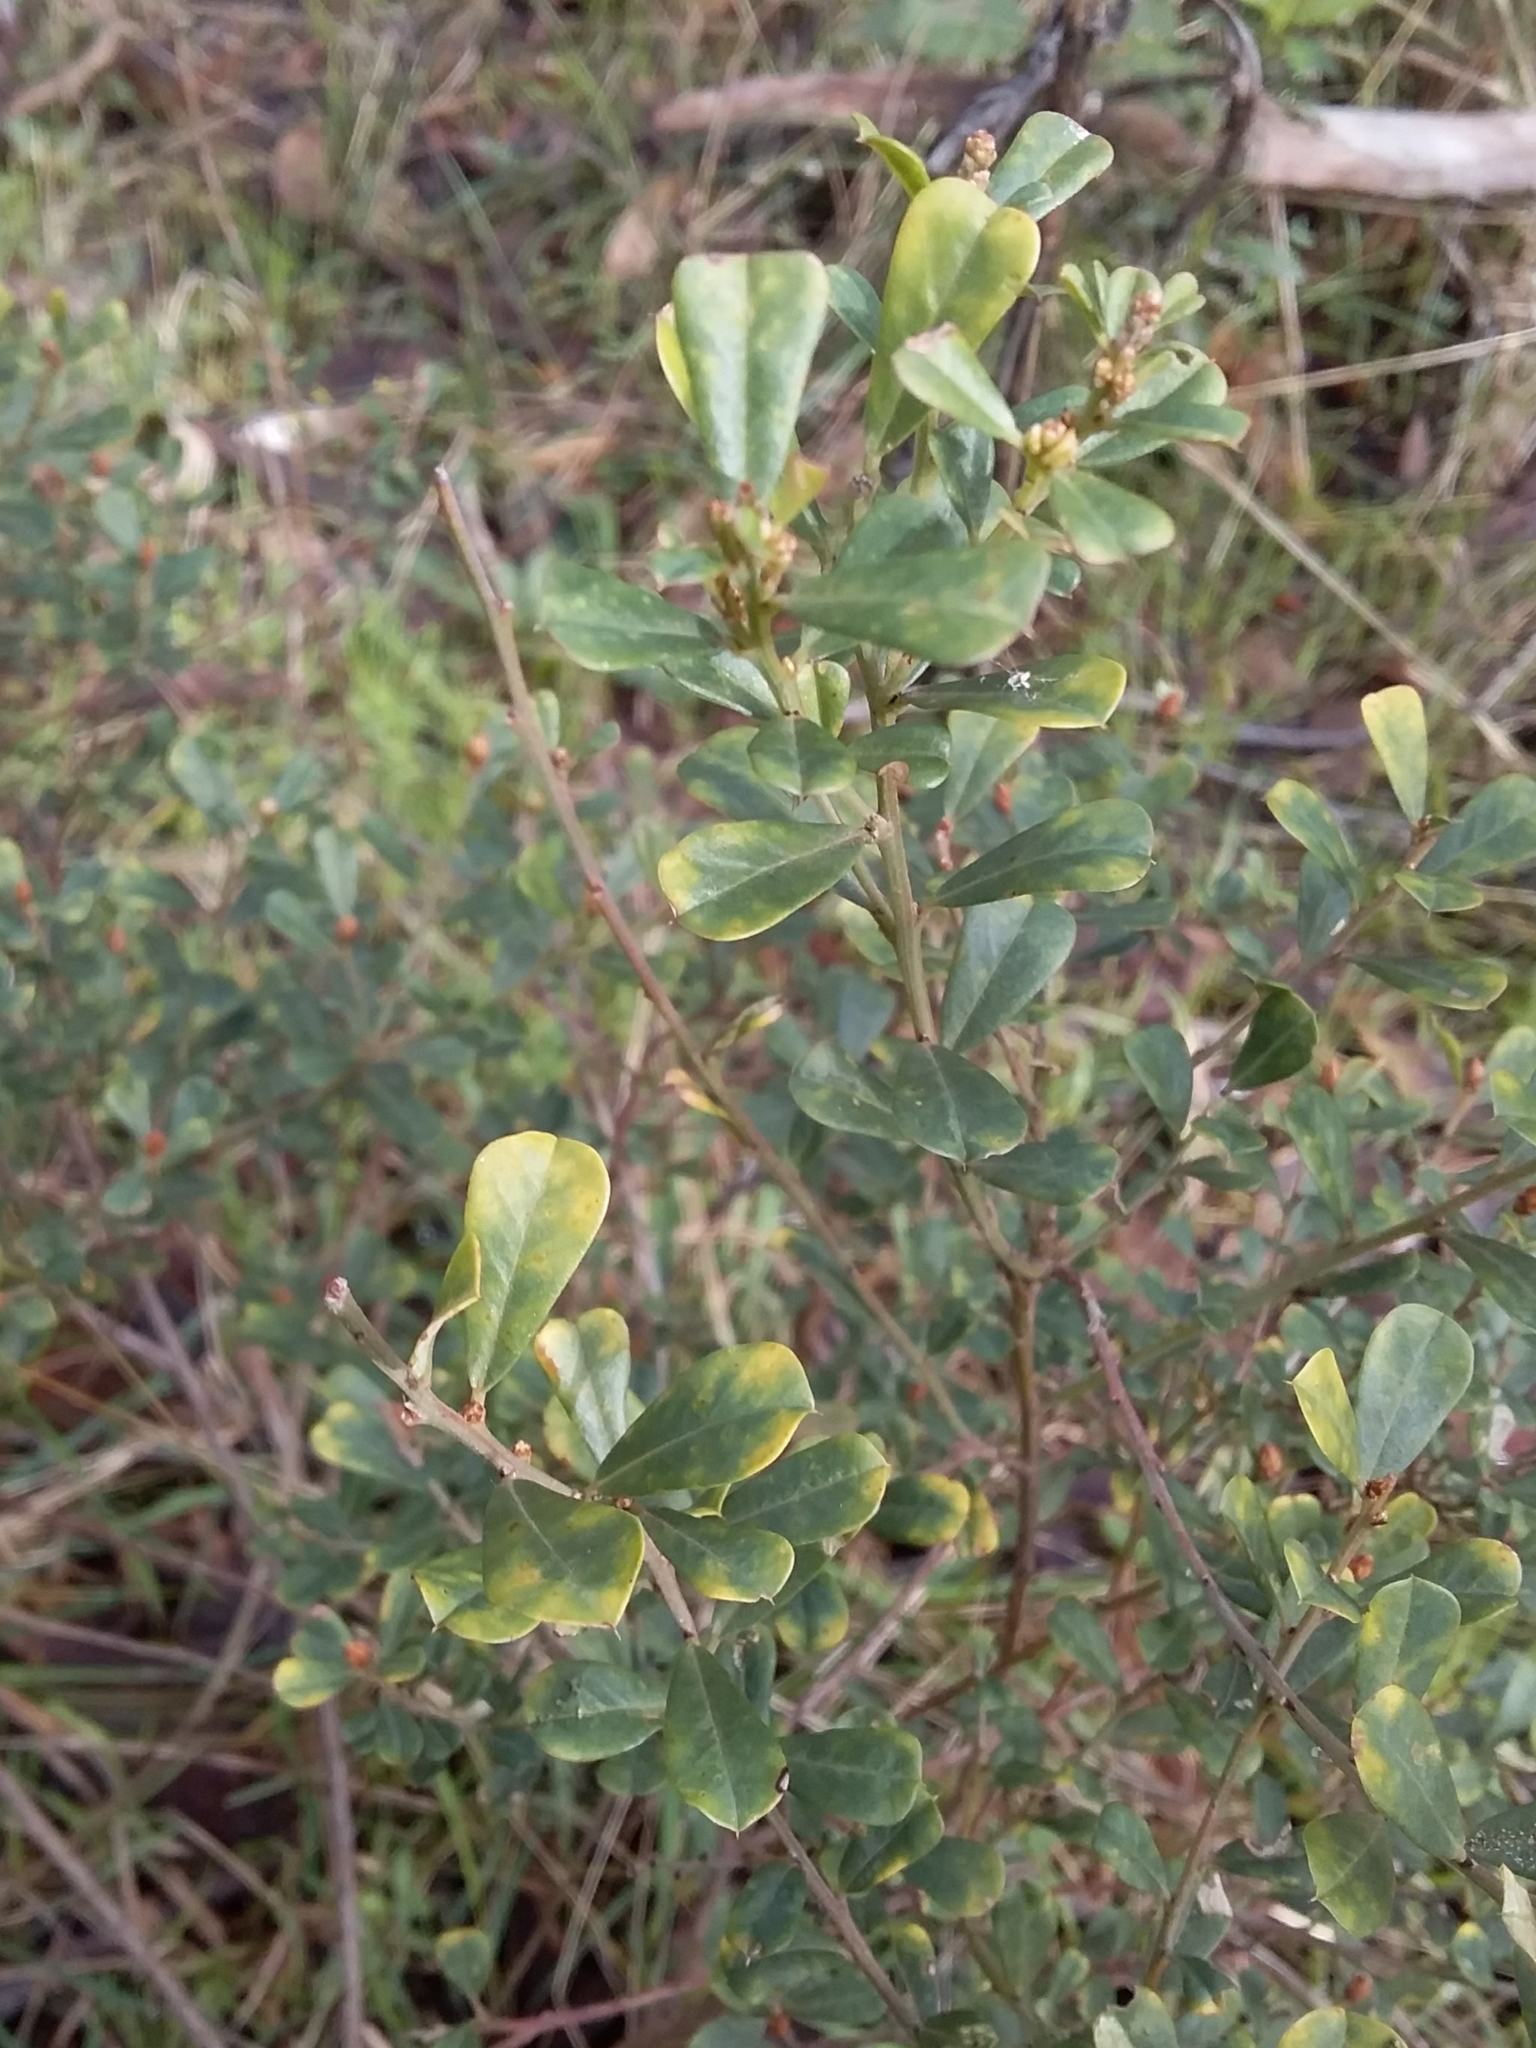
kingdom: Plantae
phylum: Tracheophyta
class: Magnoliopsida
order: Fabales
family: Fabaceae
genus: Pultenaea
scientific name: Pultenaea daphnoides
